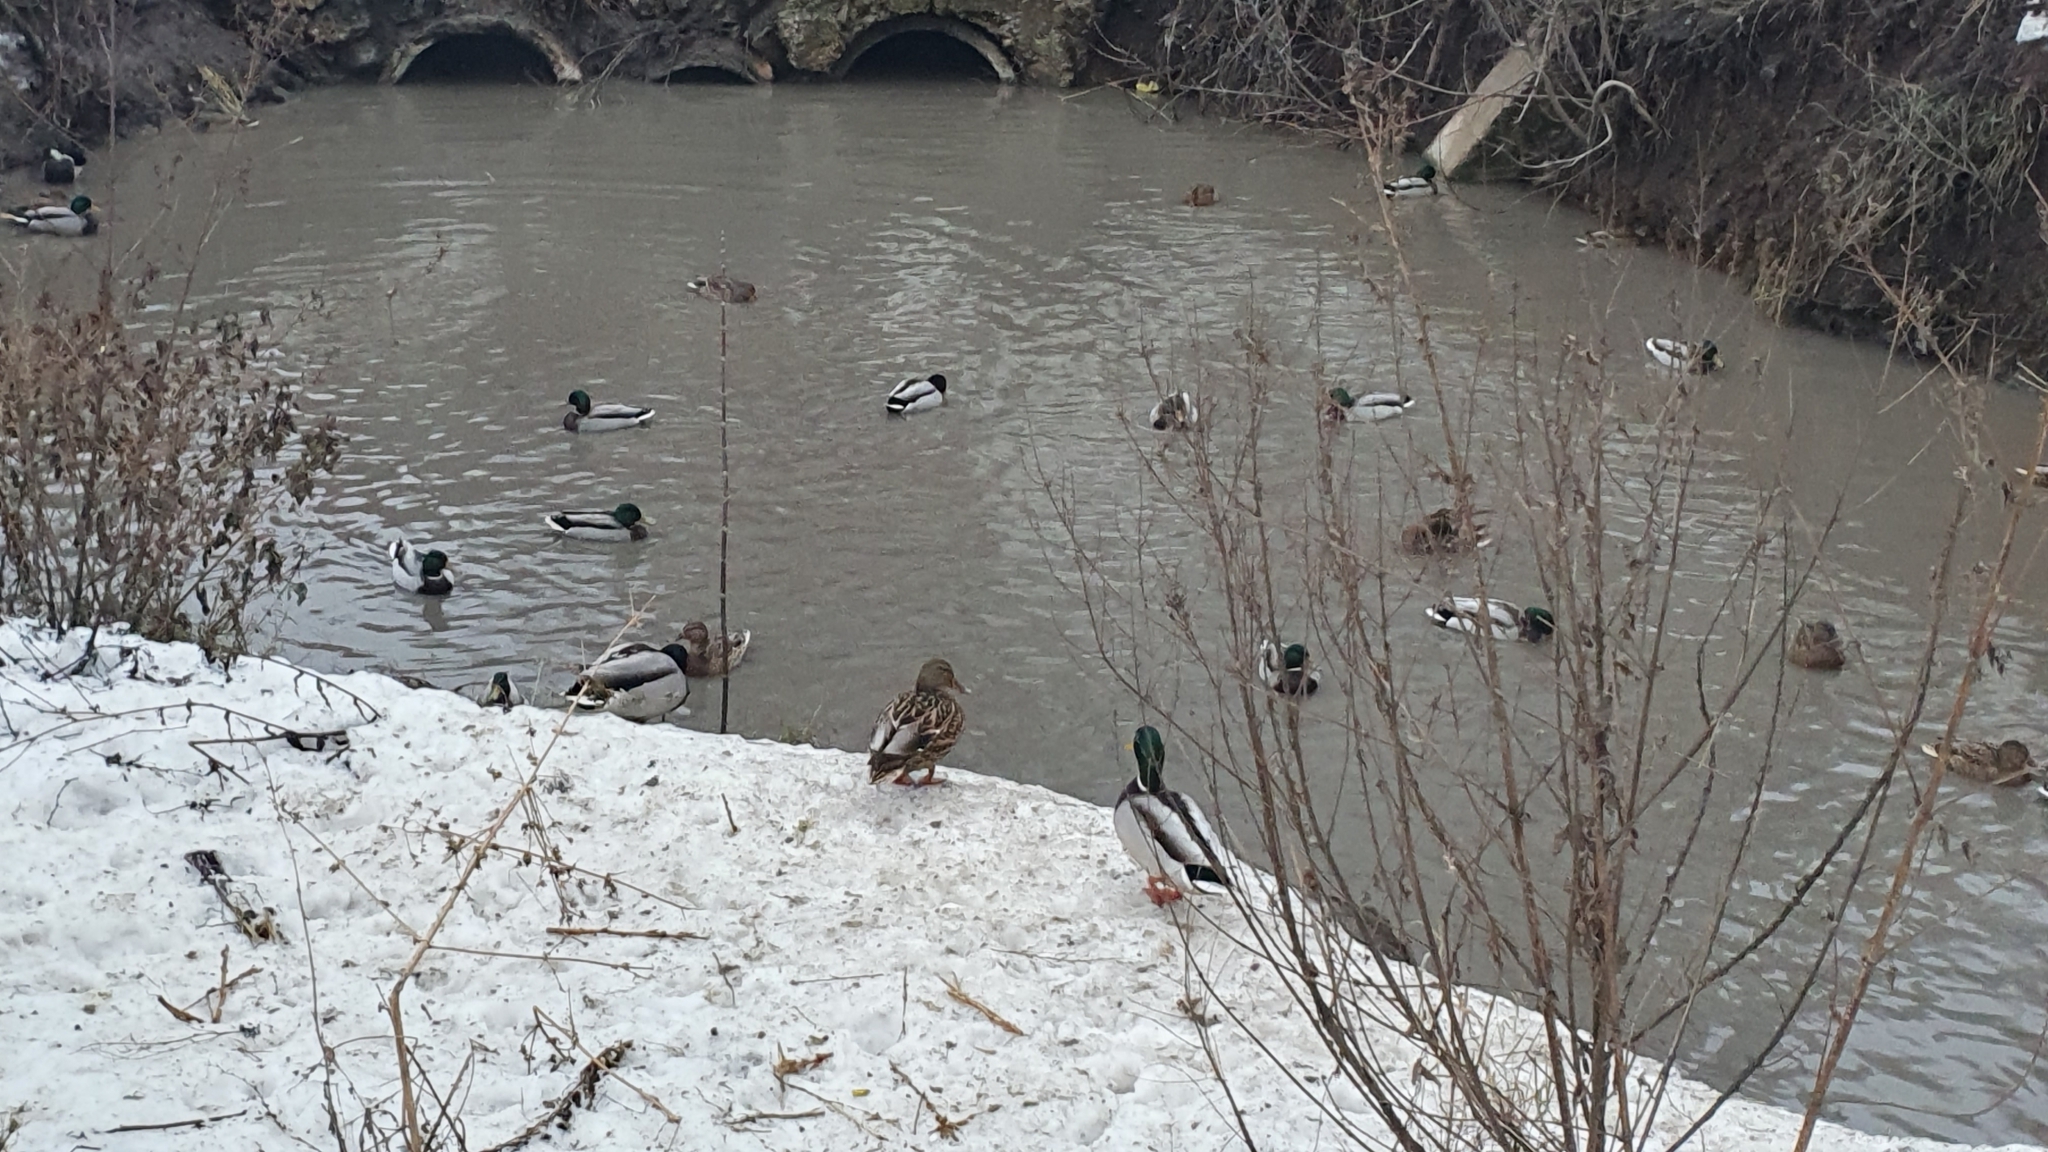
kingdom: Animalia
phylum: Chordata
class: Aves
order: Anseriformes
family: Anatidae
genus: Anas
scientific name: Anas platyrhynchos
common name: Mallard
